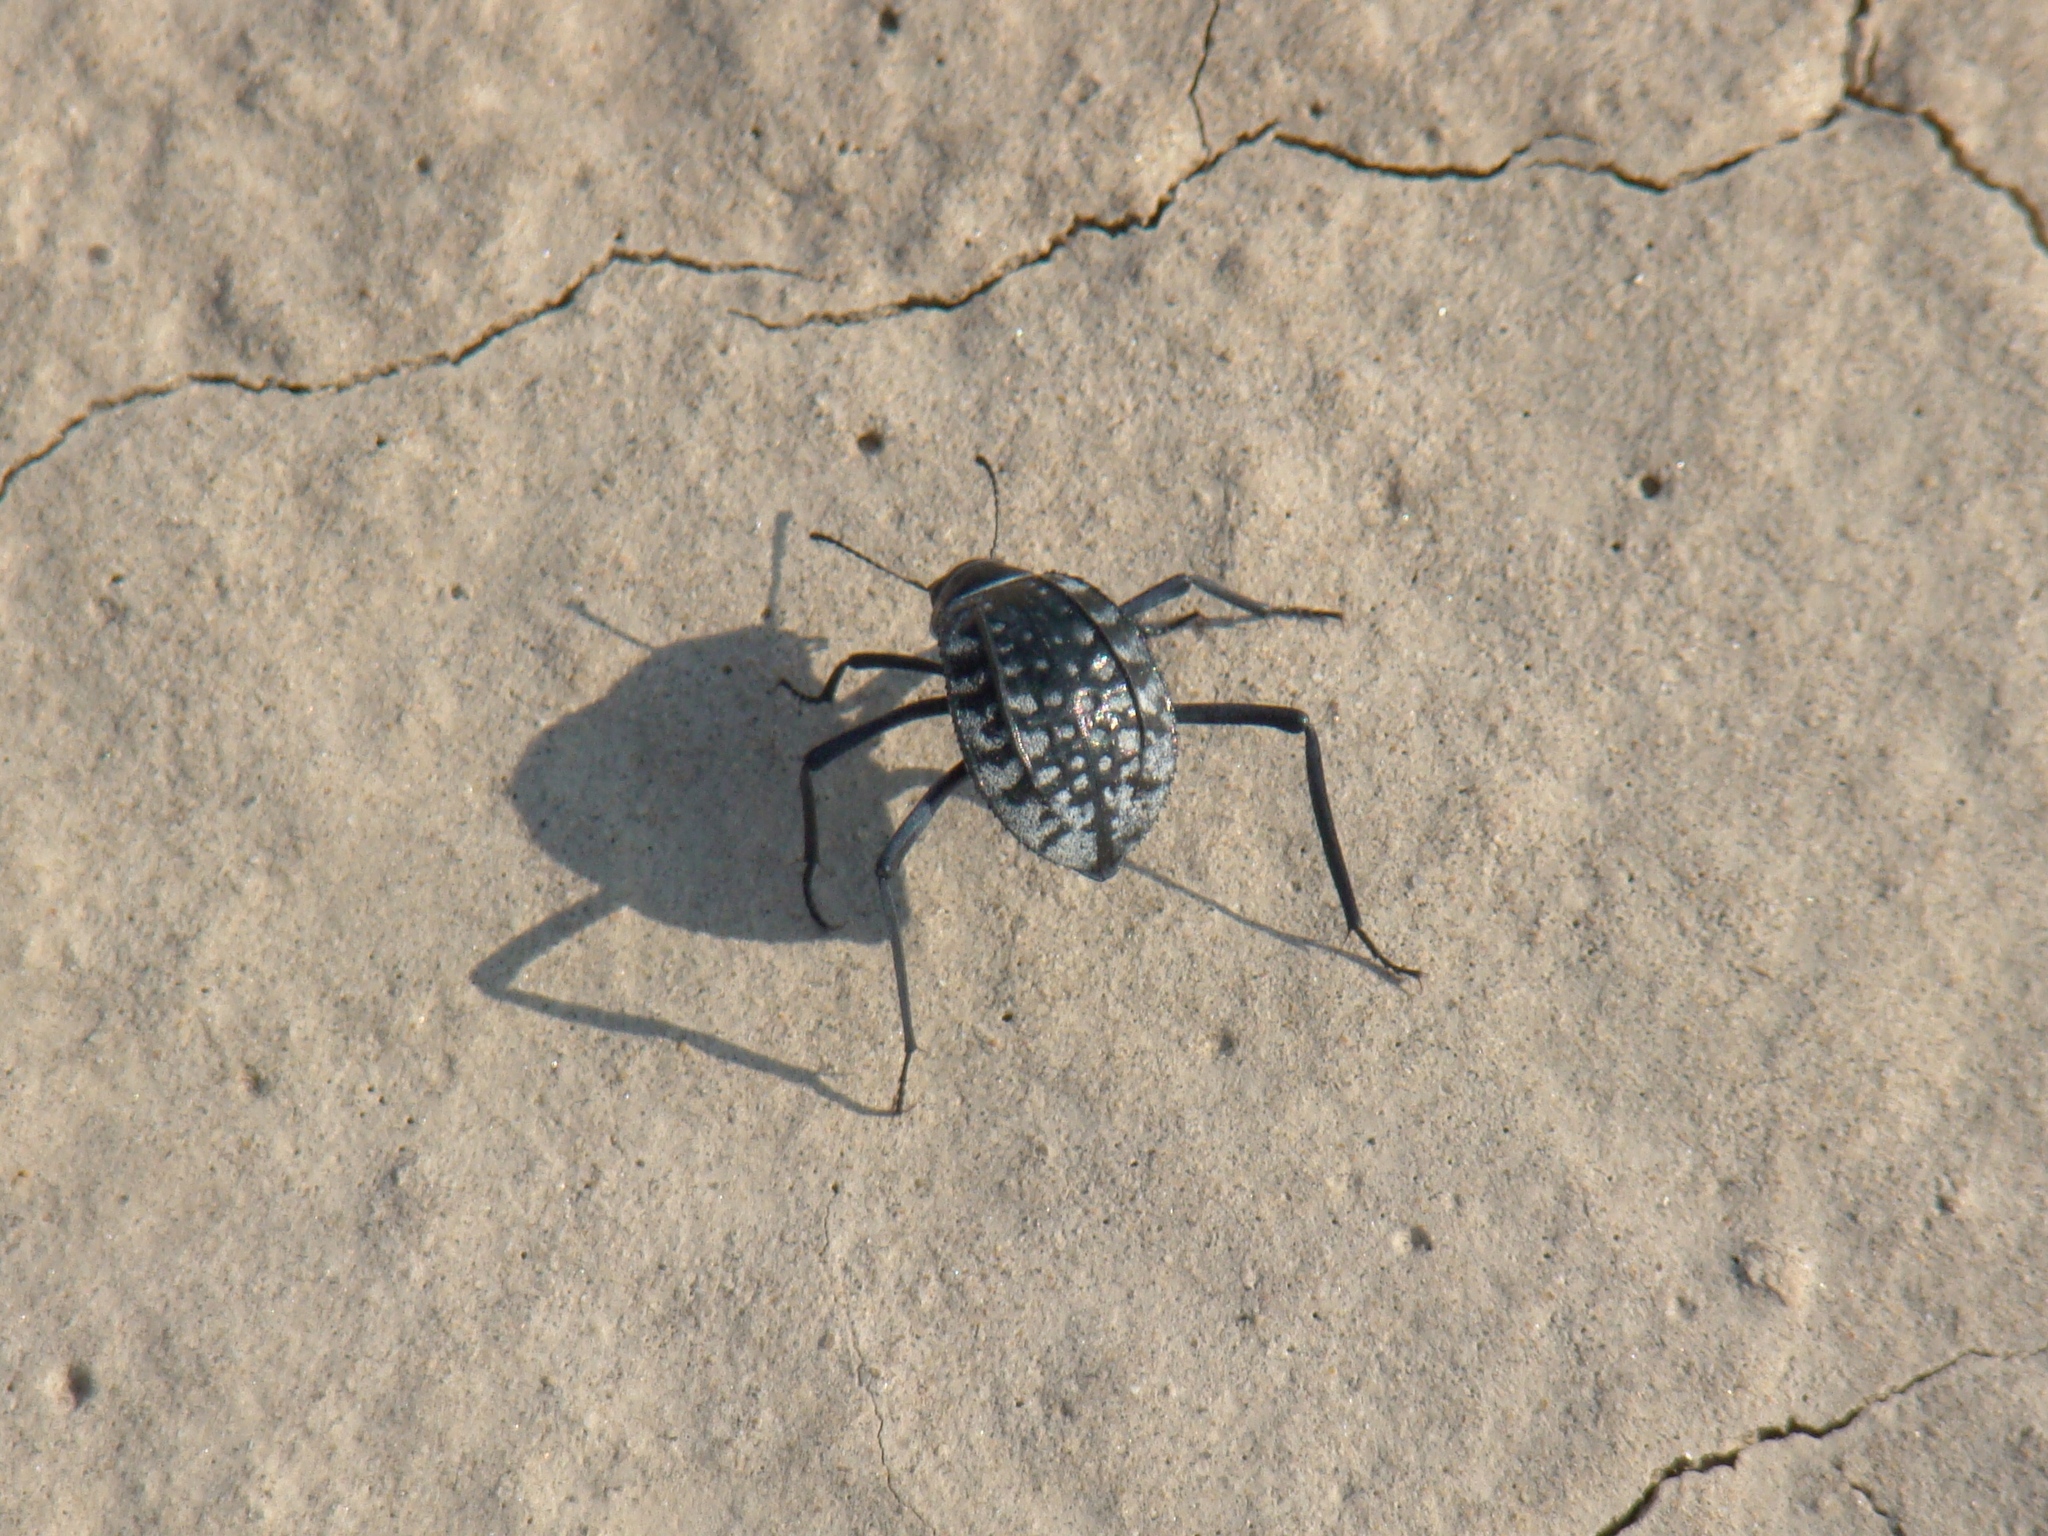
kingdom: Animalia
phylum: Arthropoda
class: Insecta
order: Coleoptera
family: Tenebrionidae
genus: Adesmia
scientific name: Adesmia
